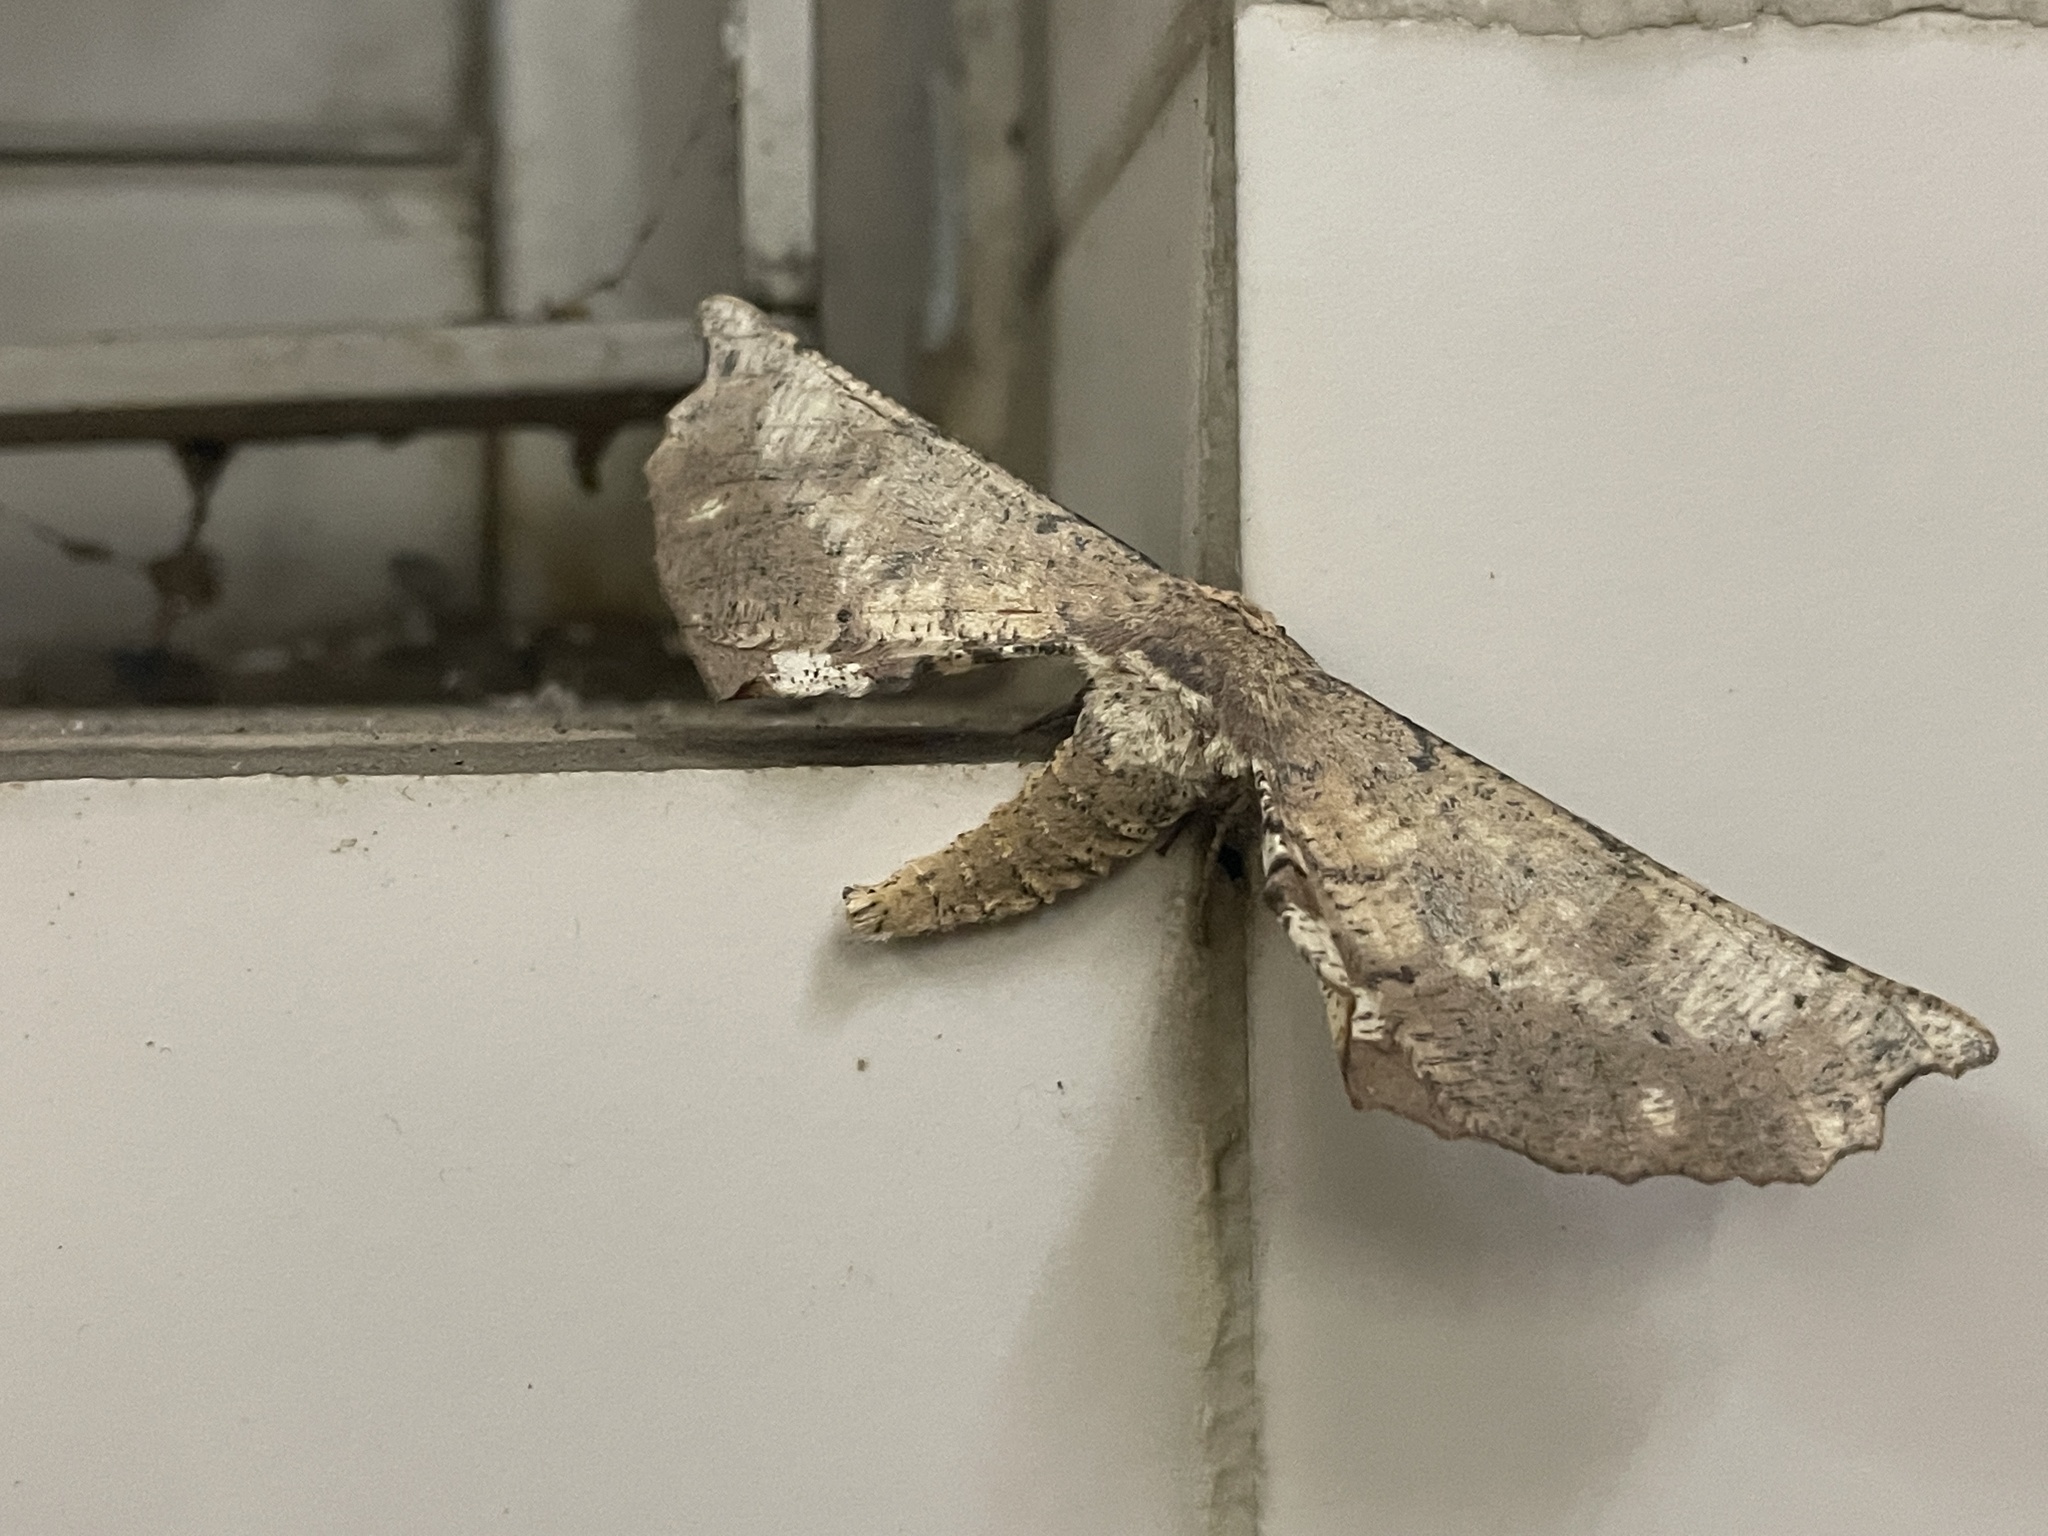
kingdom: Animalia
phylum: Arthropoda
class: Insecta
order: Lepidoptera
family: Geometridae
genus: Acrodontis
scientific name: Acrodontis hunana
